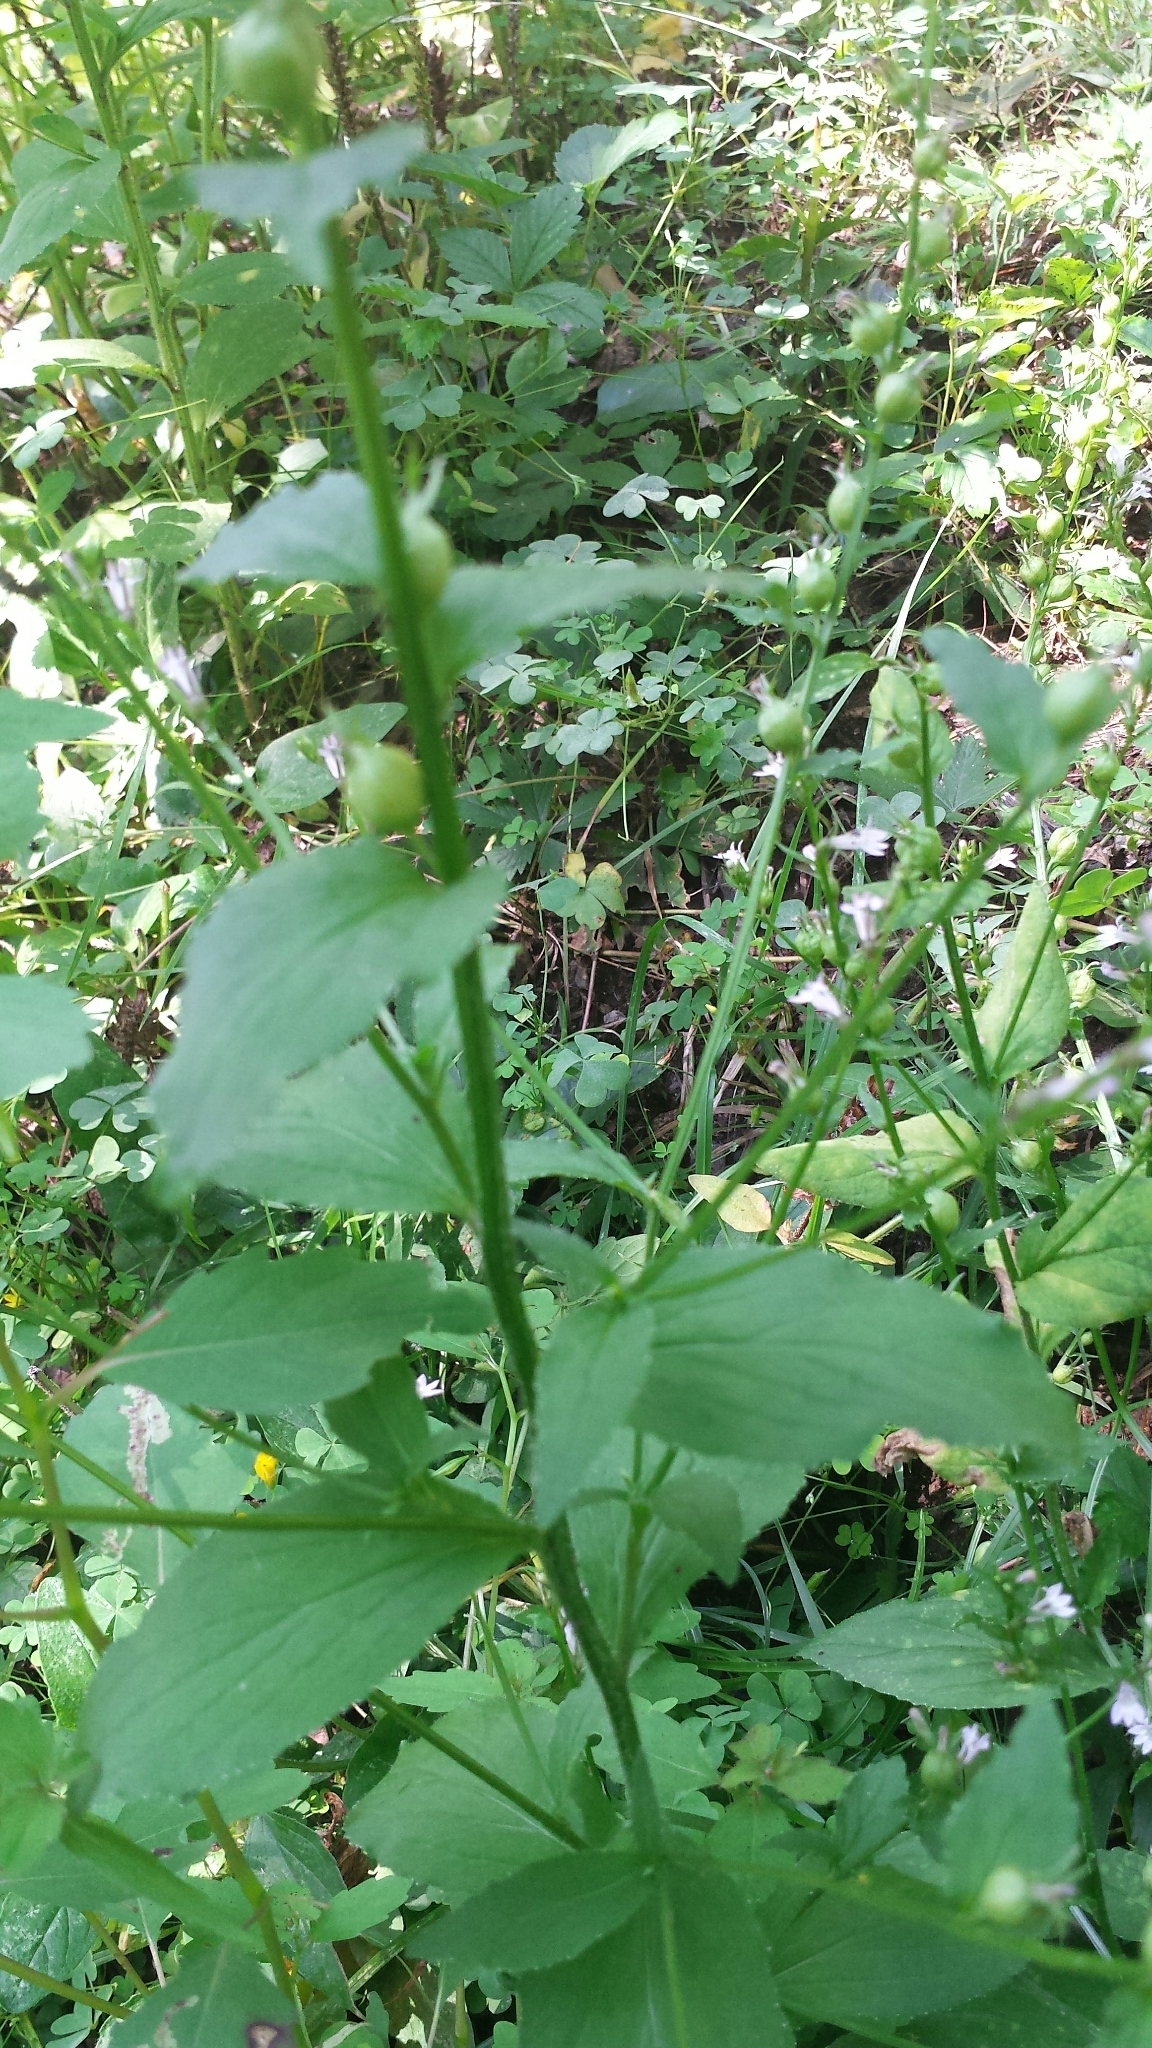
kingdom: Plantae
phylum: Tracheophyta
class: Magnoliopsida
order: Asterales
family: Campanulaceae
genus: Lobelia
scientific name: Lobelia inflata
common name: Indian tobacco
